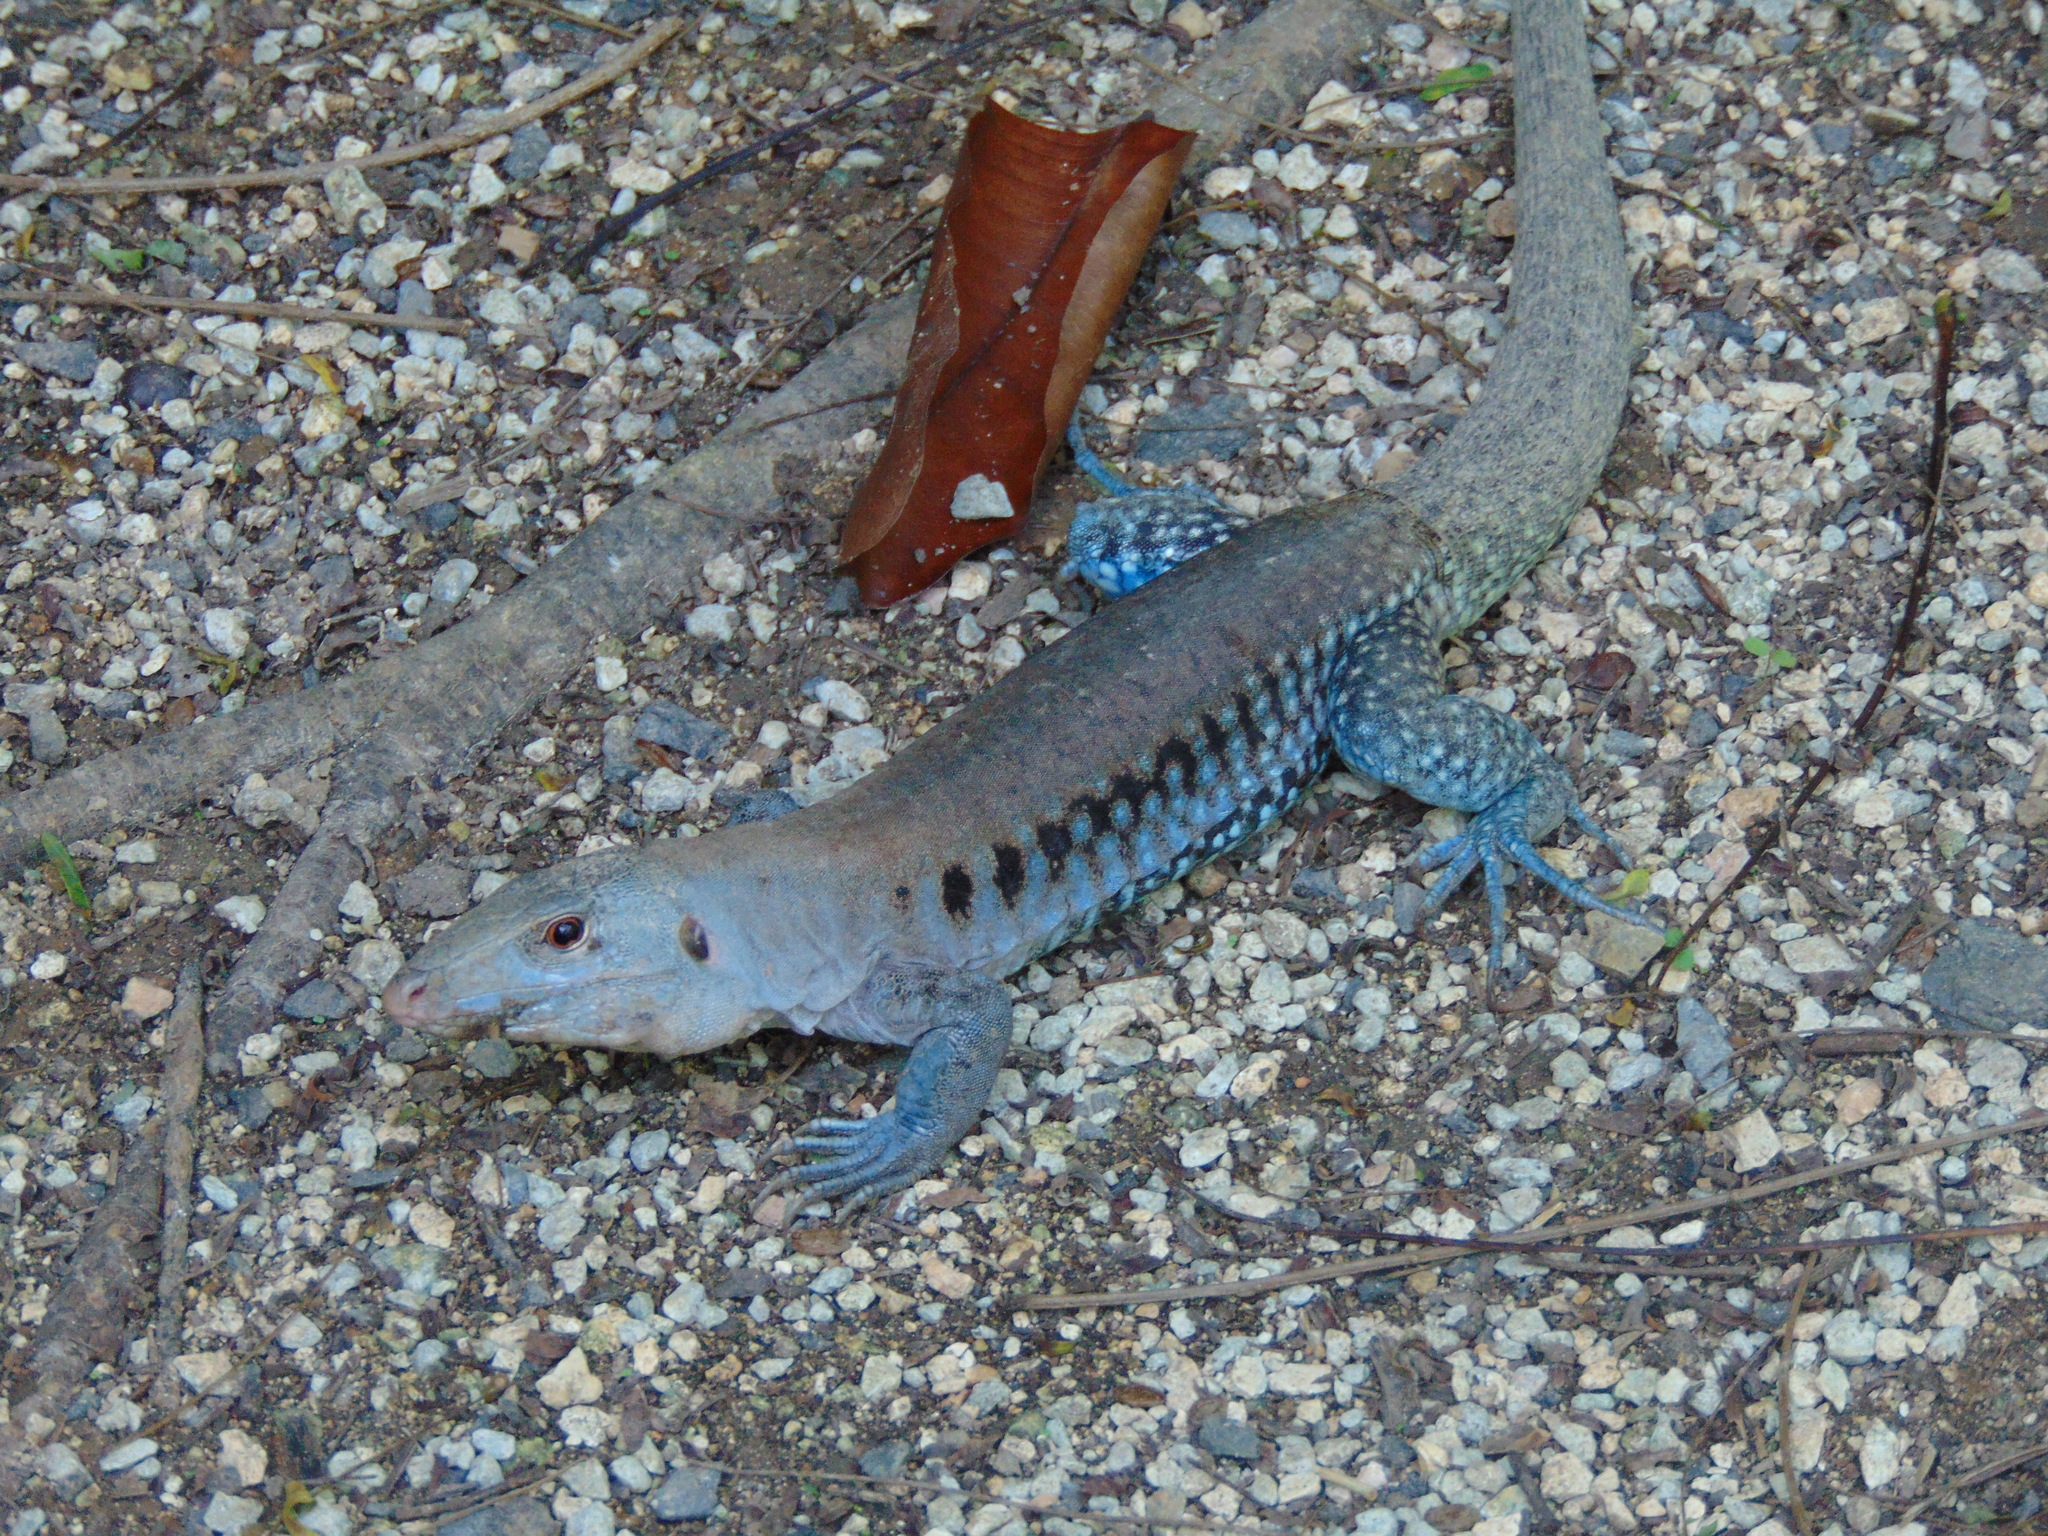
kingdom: Animalia
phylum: Chordata
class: Squamata
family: Teiidae
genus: Pholidoscelis
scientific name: Pholidoscelis exsul
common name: Common puerto rican ameiva
